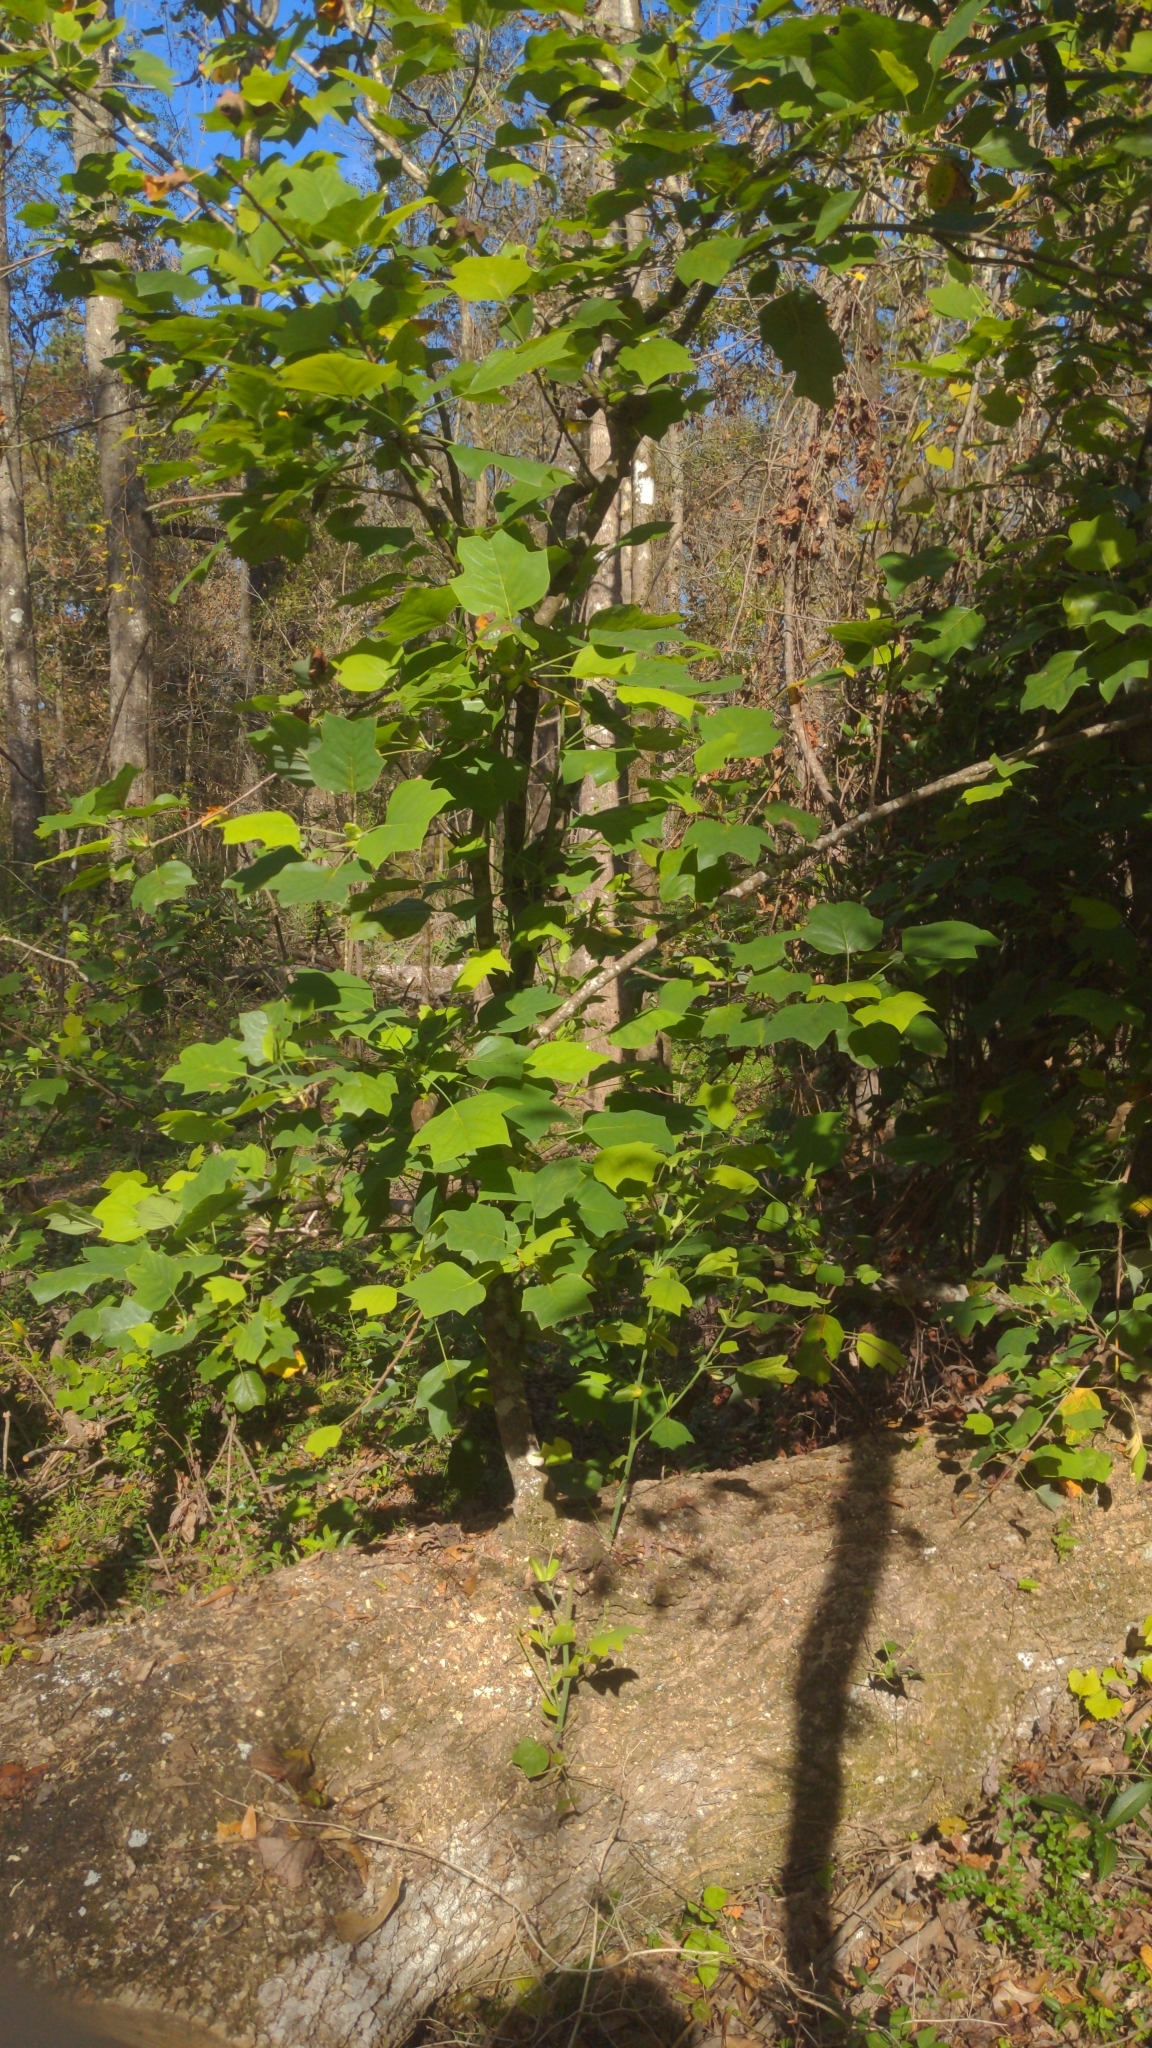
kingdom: Plantae
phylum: Tracheophyta
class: Magnoliopsida
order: Magnoliales
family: Magnoliaceae
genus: Liriodendron
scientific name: Liriodendron tulipifera
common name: Tulip tree
